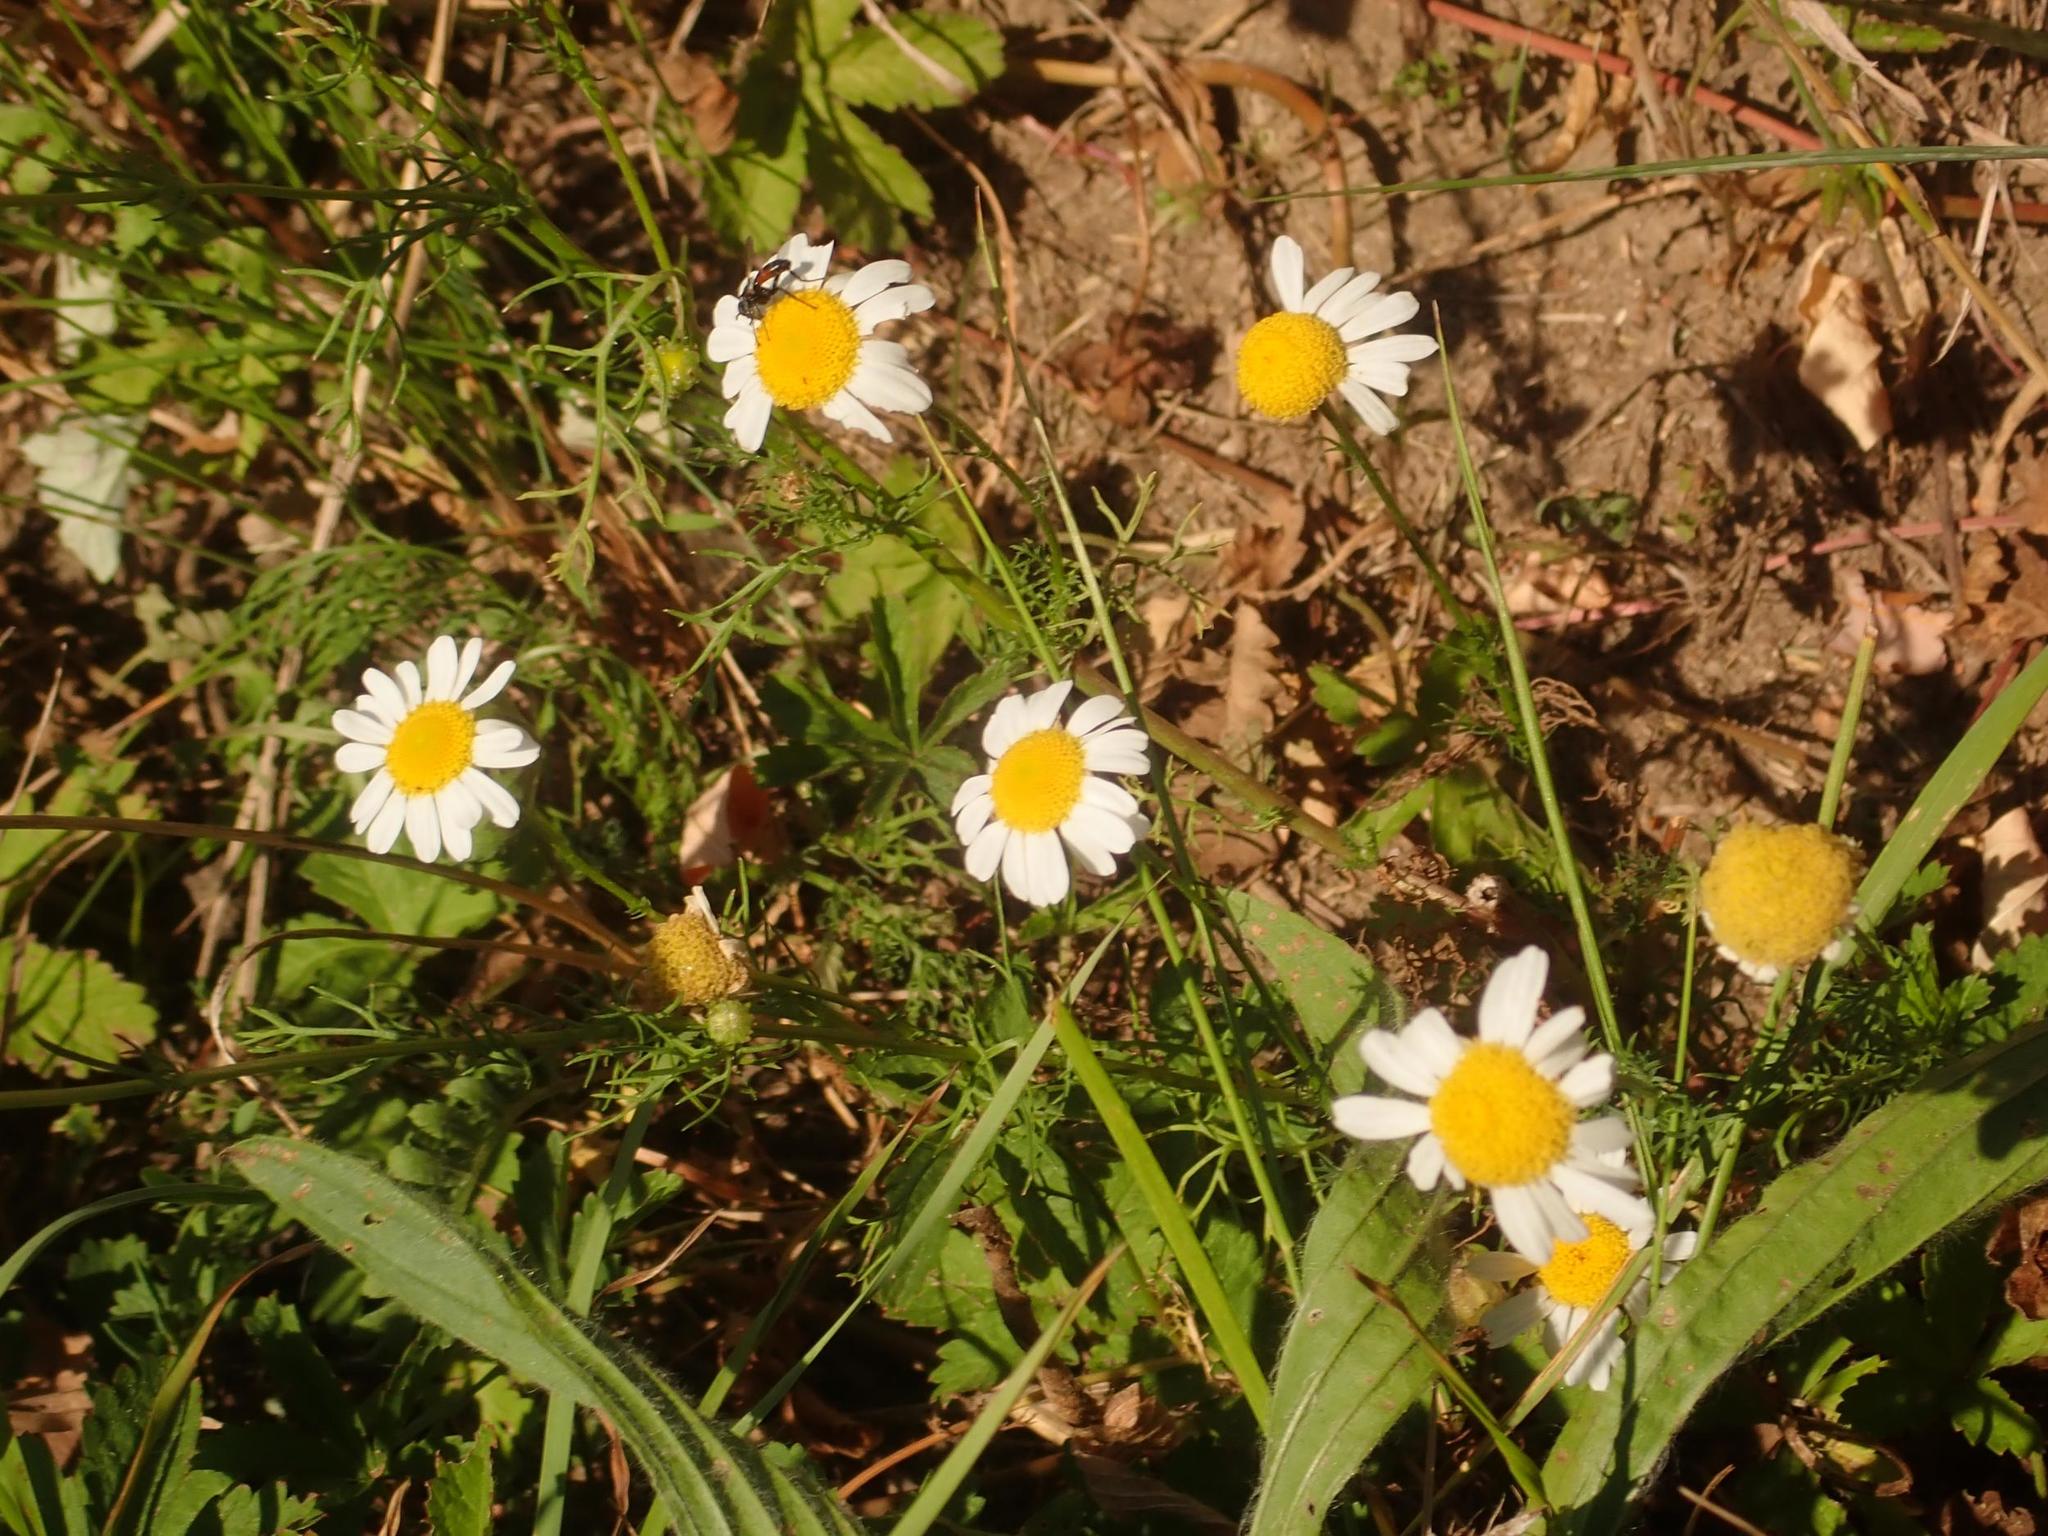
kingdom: Plantae
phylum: Tracheophyta
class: Magnoliopsida
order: Asterales
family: Asteraceae
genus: Matricaria
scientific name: Matricaria chamomilla
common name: Scented mayweed
